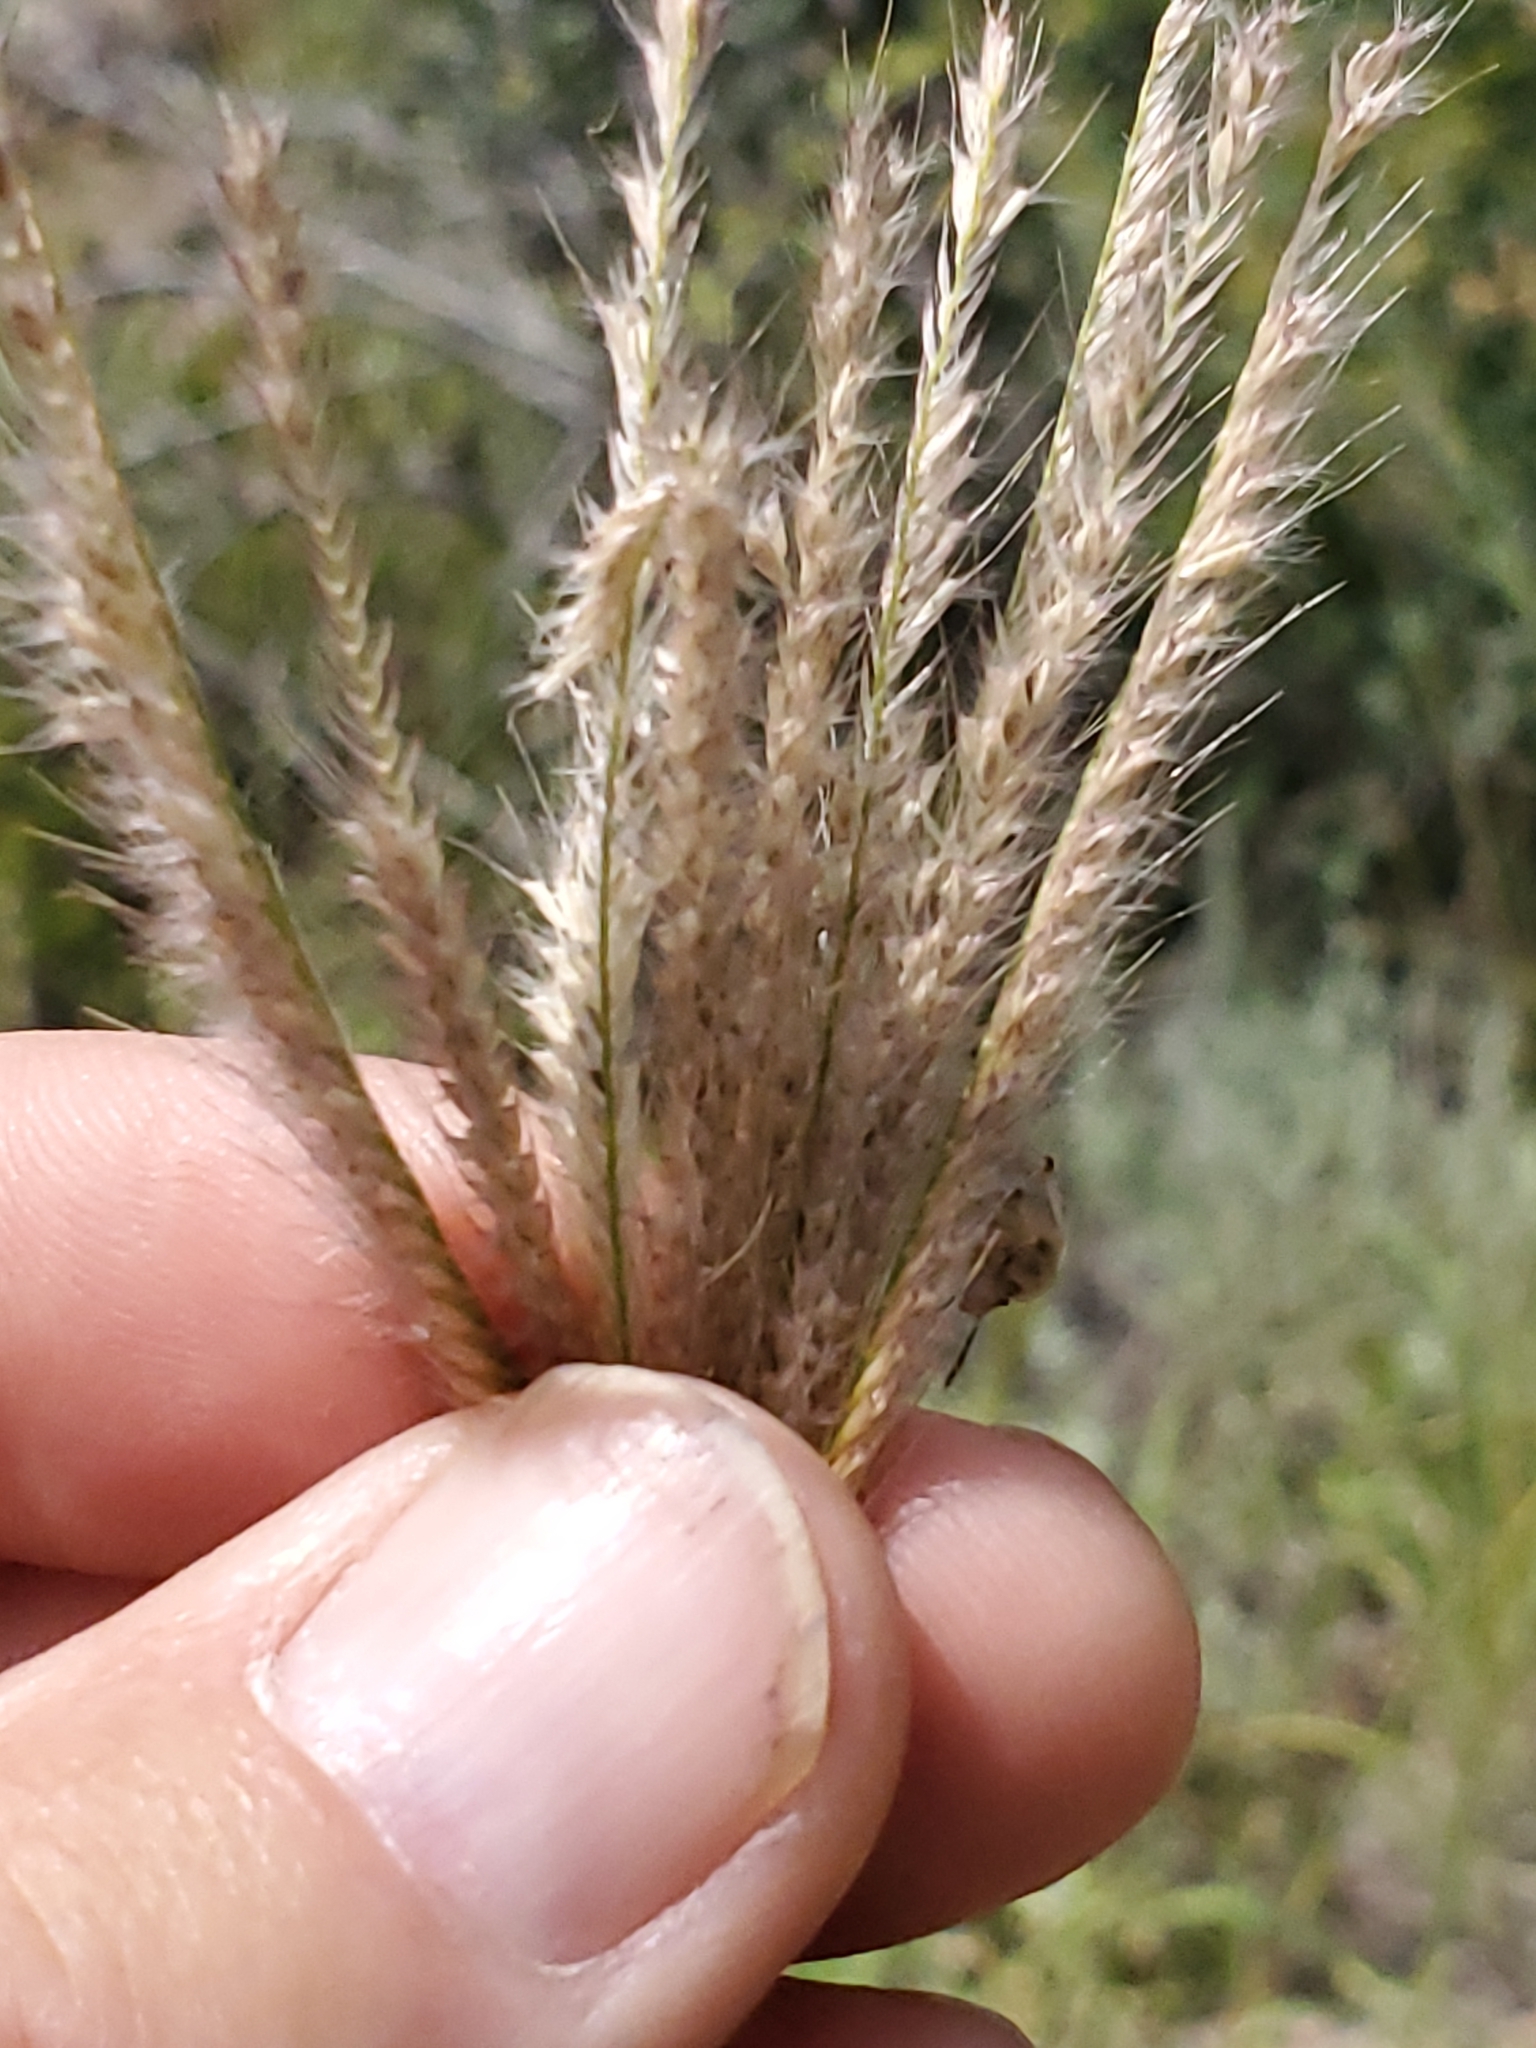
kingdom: Plantae
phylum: Tracheophyta
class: Liliopsida
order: Poales
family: Poaceae
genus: Chloris
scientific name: Chloris virgata
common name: Feathery rhodes-grass
